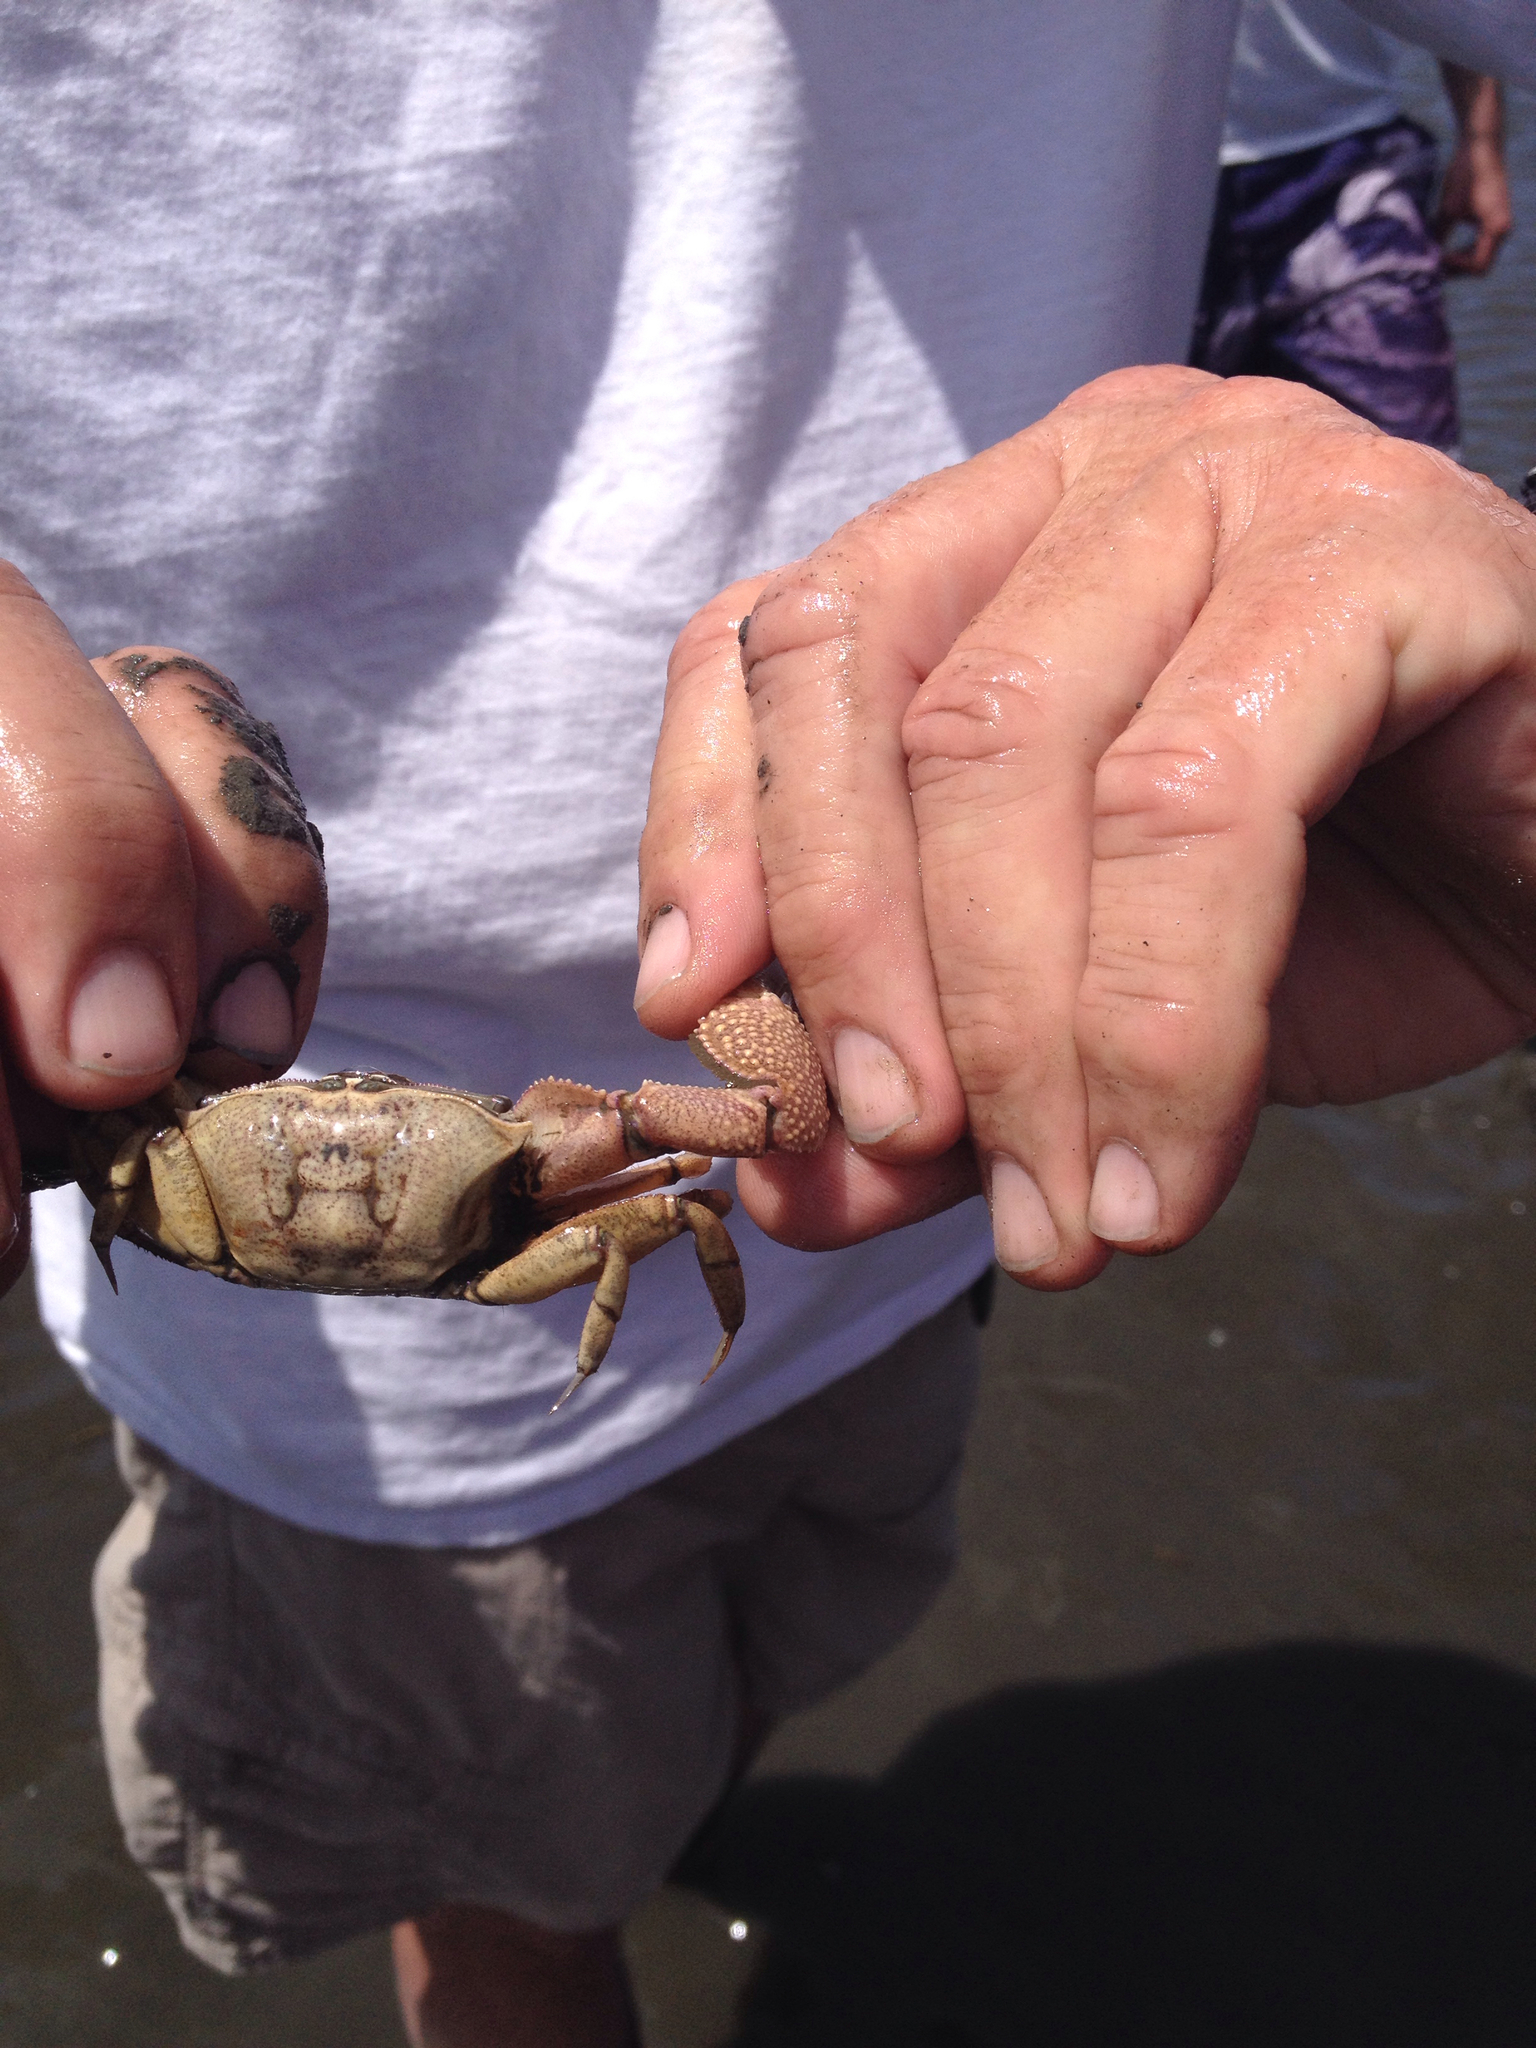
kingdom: Animalia
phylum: Arthropoda
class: Malacostraca
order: Decapoda
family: Ocypodidae
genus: Uca
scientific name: Uca princeps
